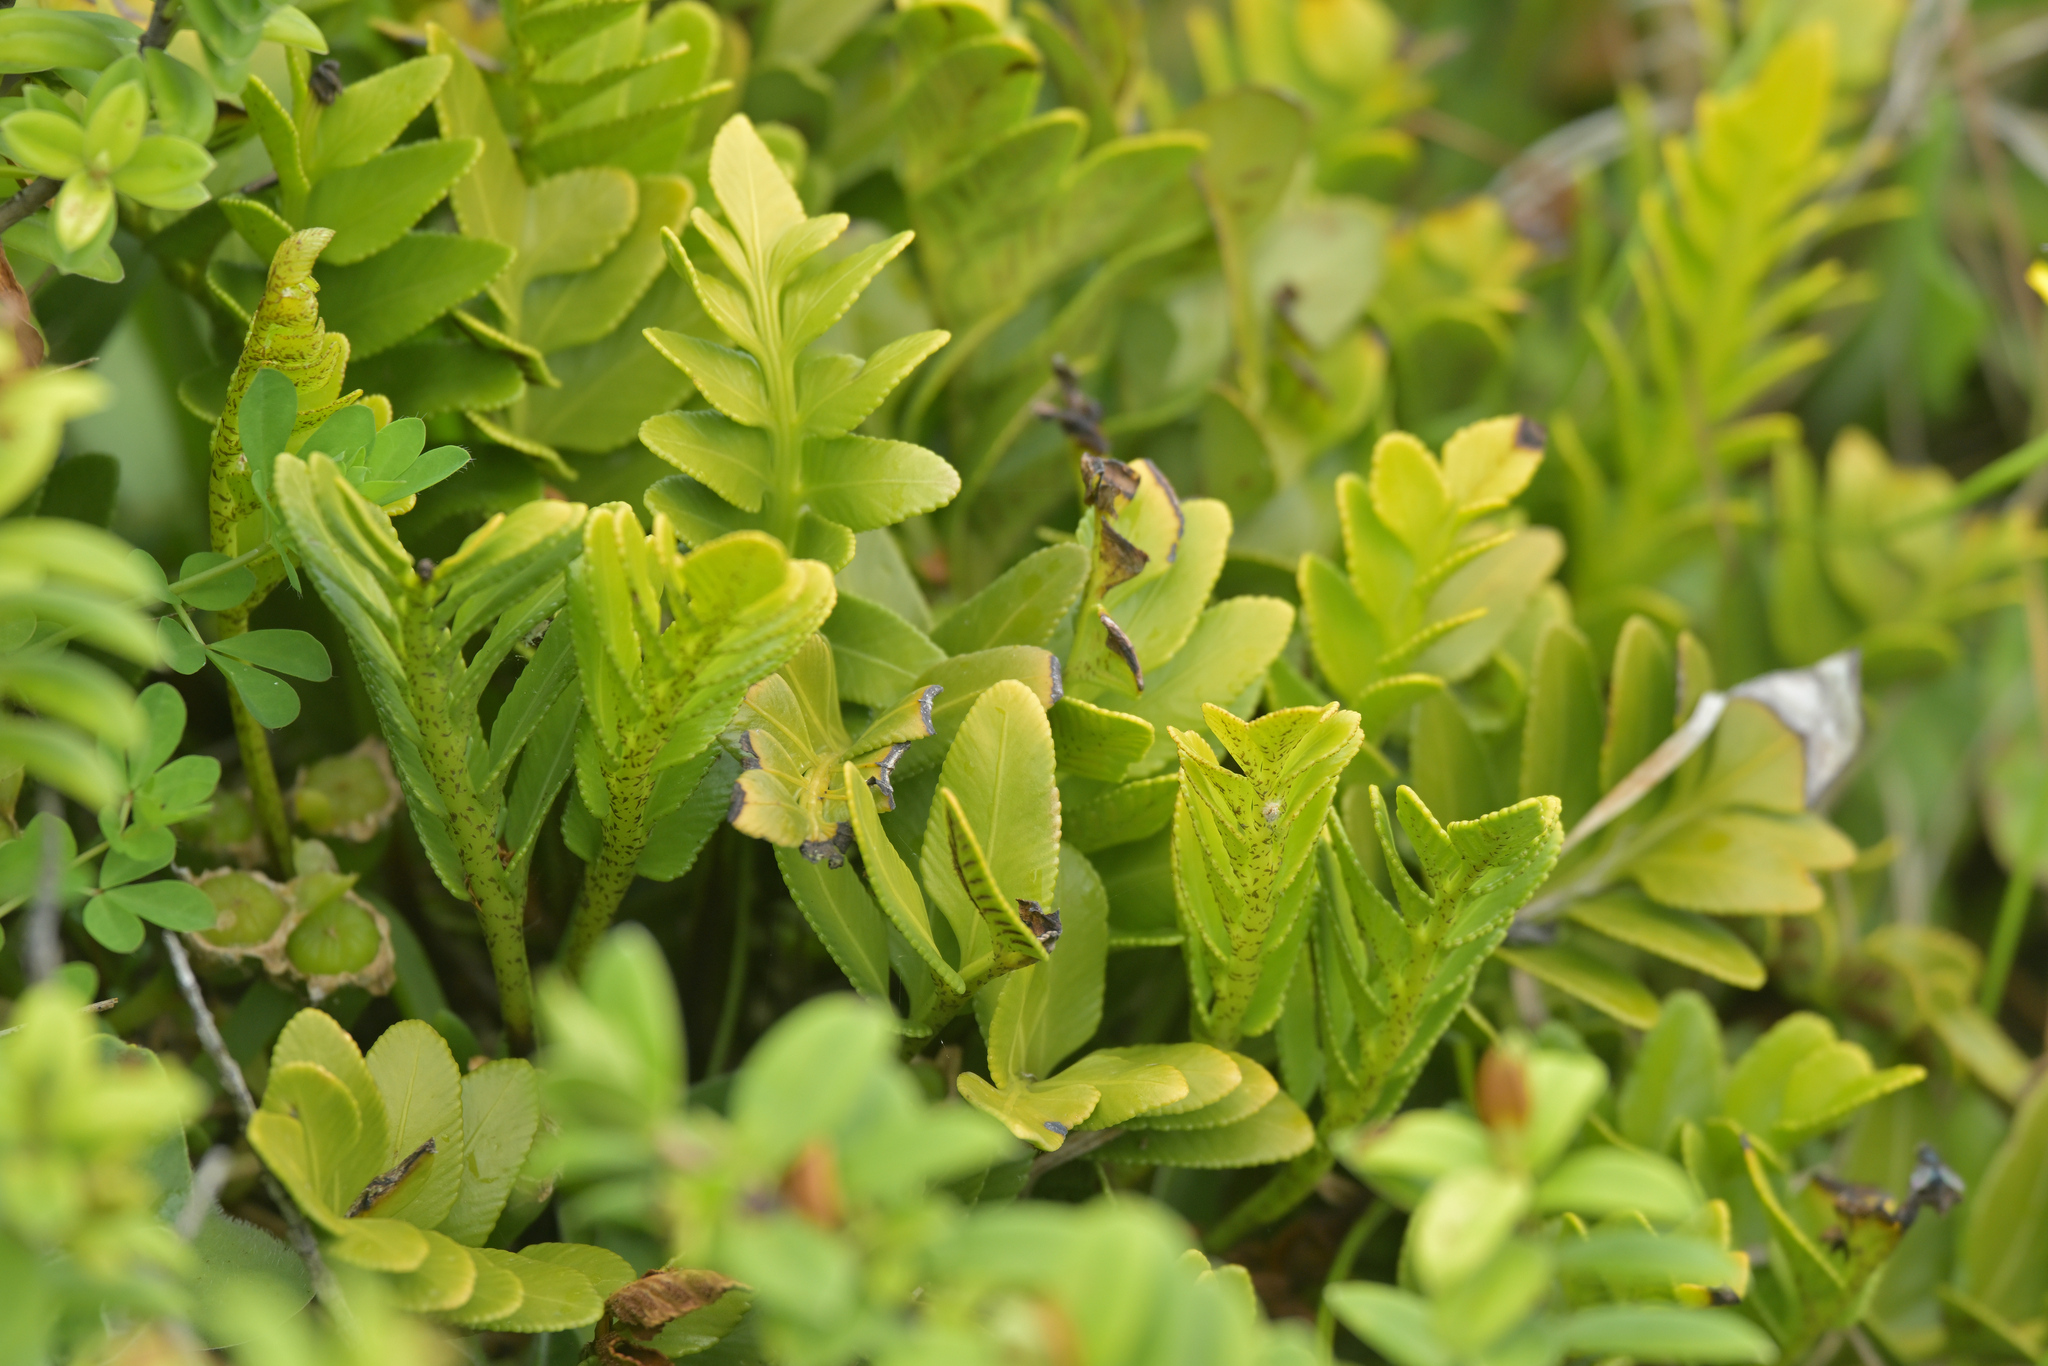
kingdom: Plantae
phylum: Tracheophyta
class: Polypodiopsida
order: Polypodiales
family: Aspleniaceae
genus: Asplenium
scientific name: Asplenium obtusatum
